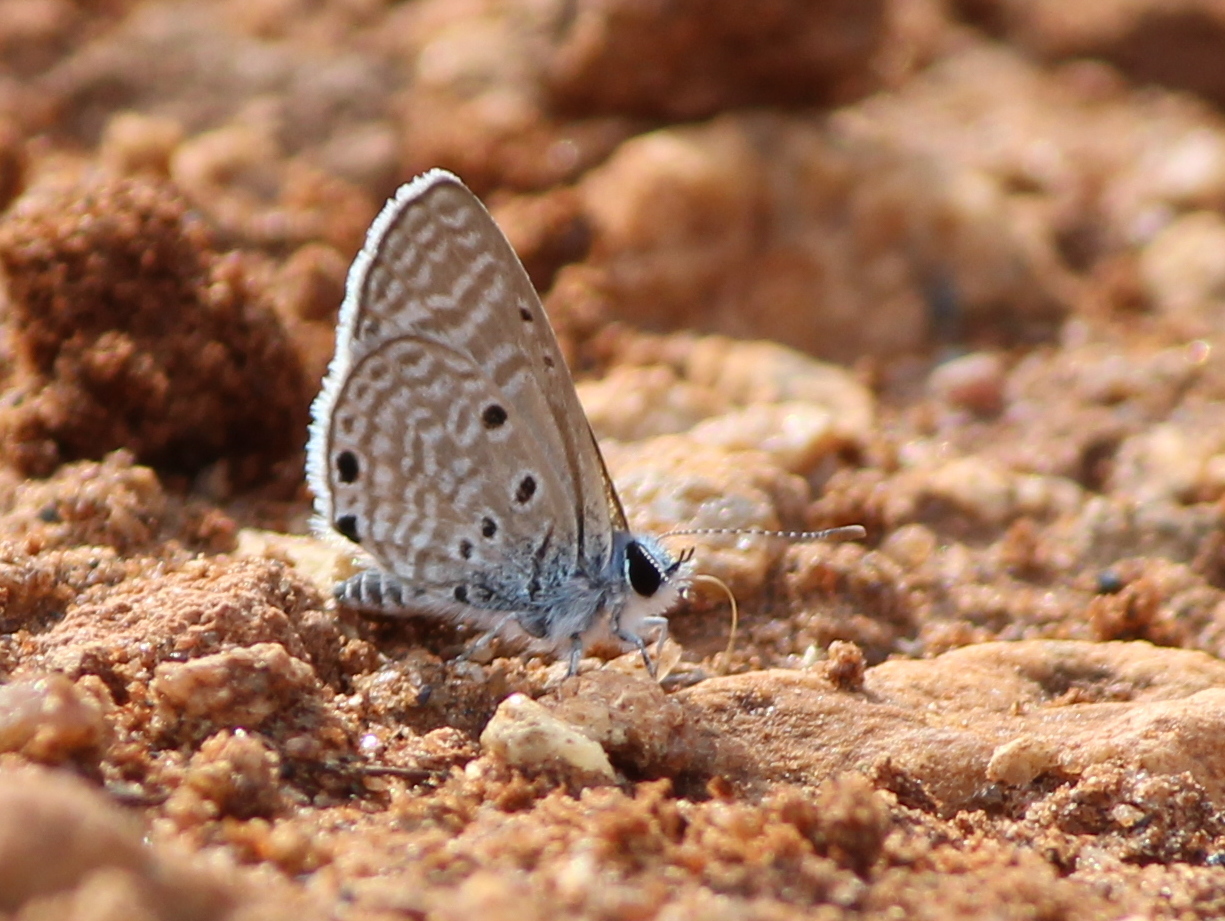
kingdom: Animalia
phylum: Arthropoda
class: Insecta
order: Lepidoptera
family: Lycaenidae
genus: Azanus
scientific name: Azanus ubaldus
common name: Desert babul blue
